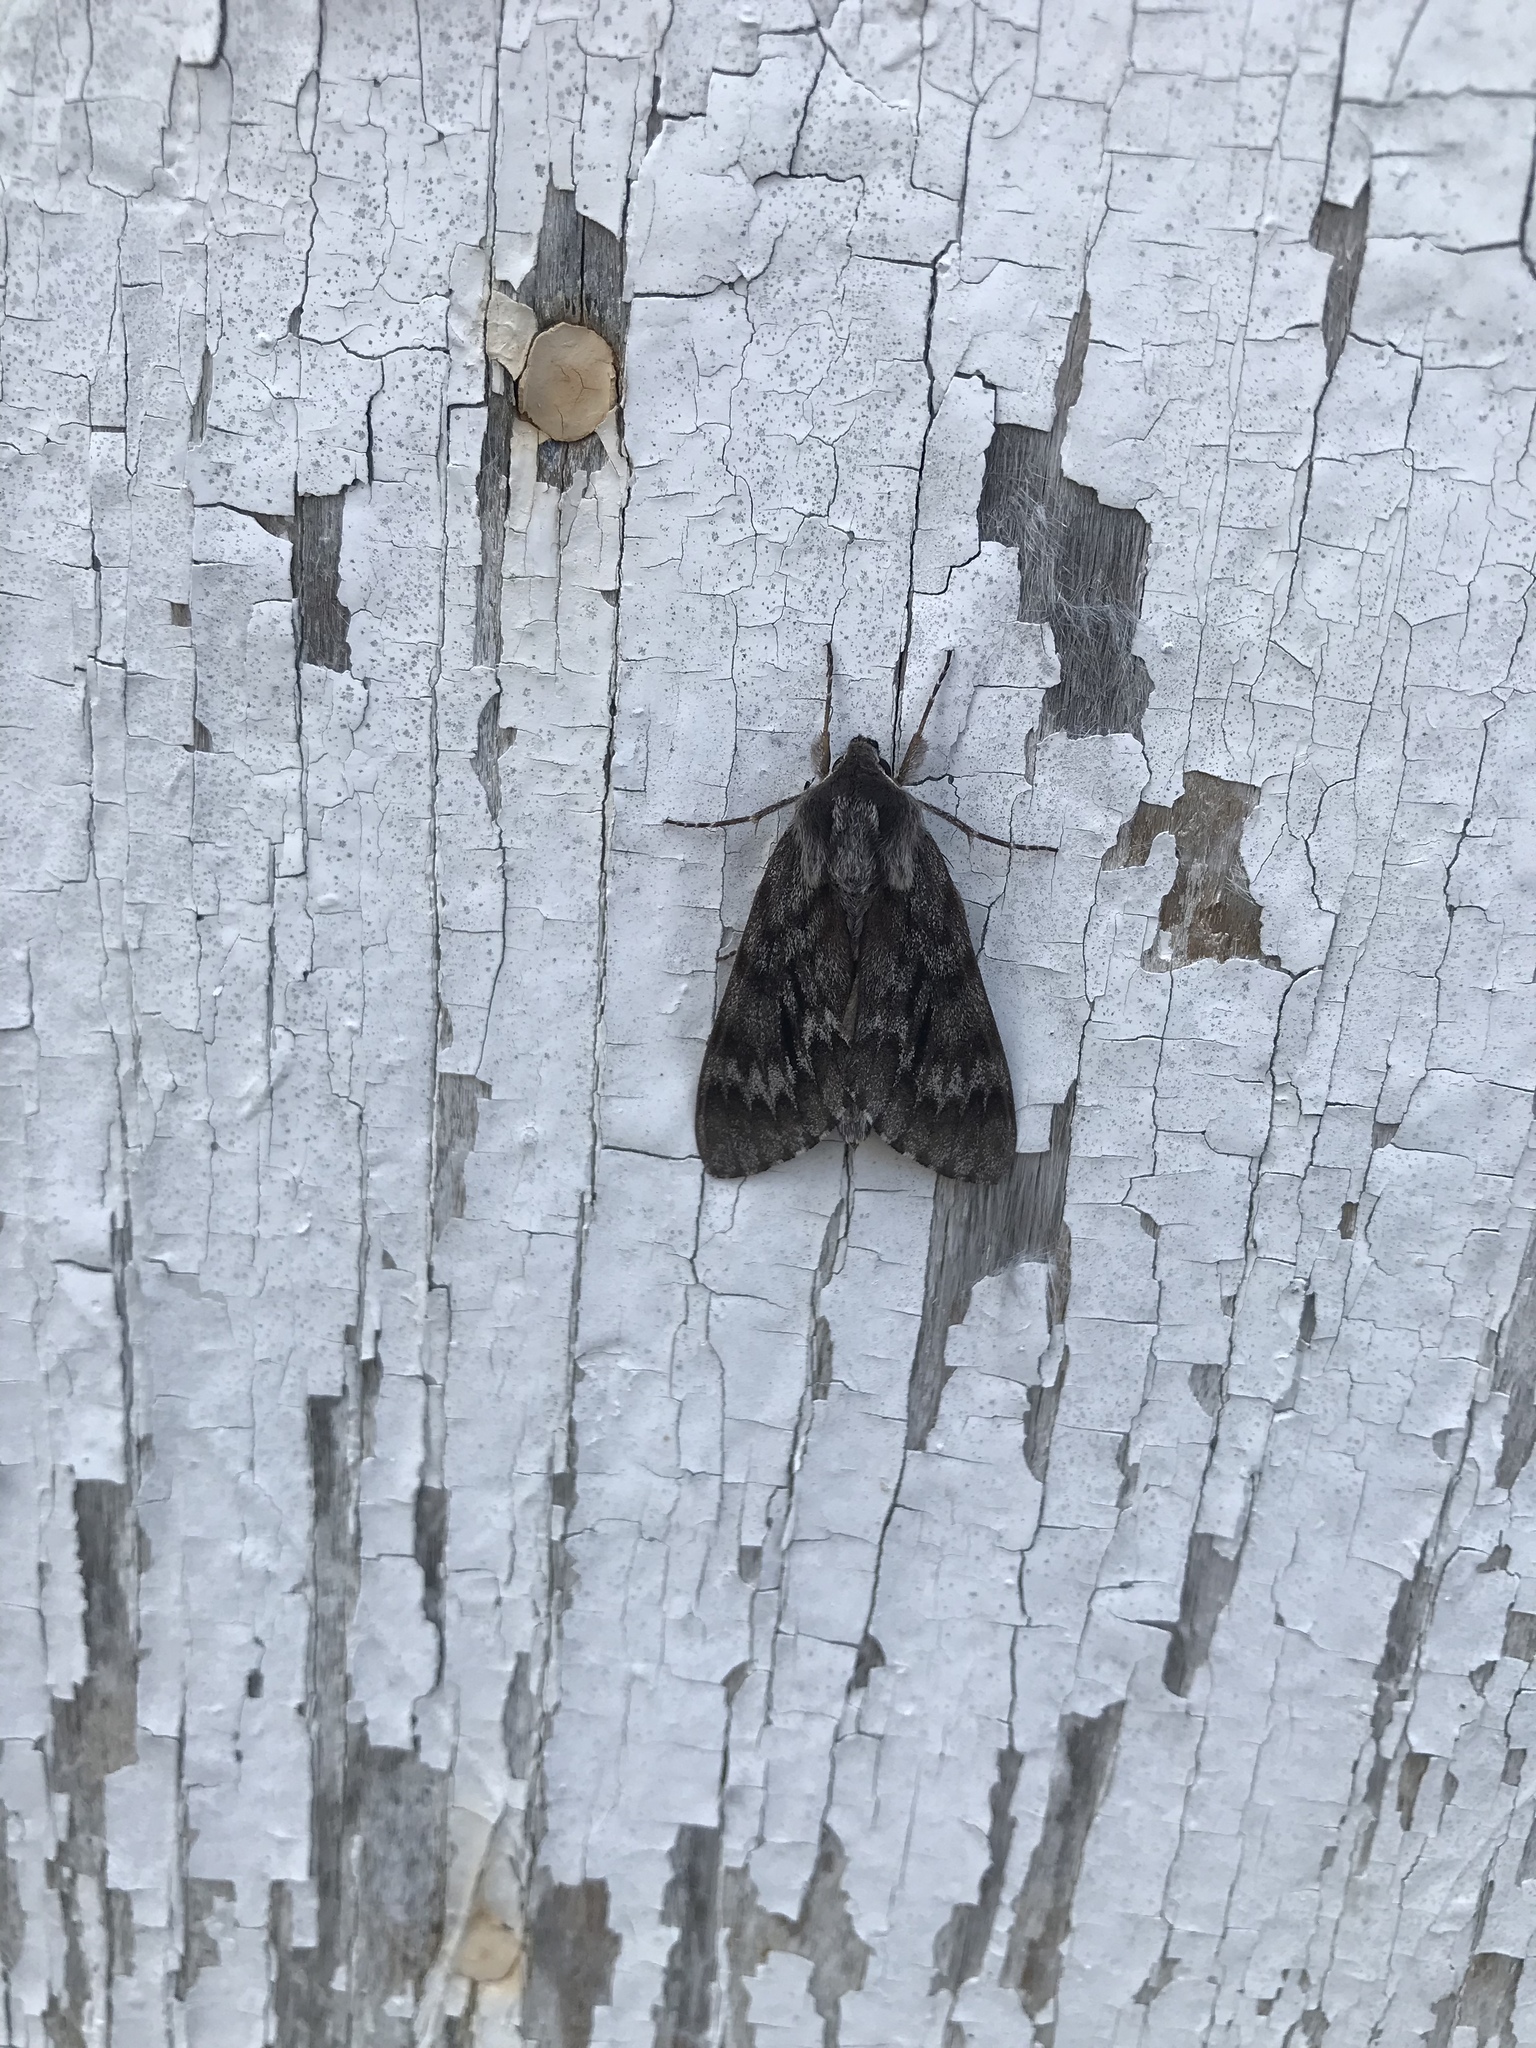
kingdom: Animalia
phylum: Arthropoda
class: Insecta
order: Lepidoptera
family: Sphingidae
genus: Lapara
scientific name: Lapara bombycoides
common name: Northern pine sphinx
